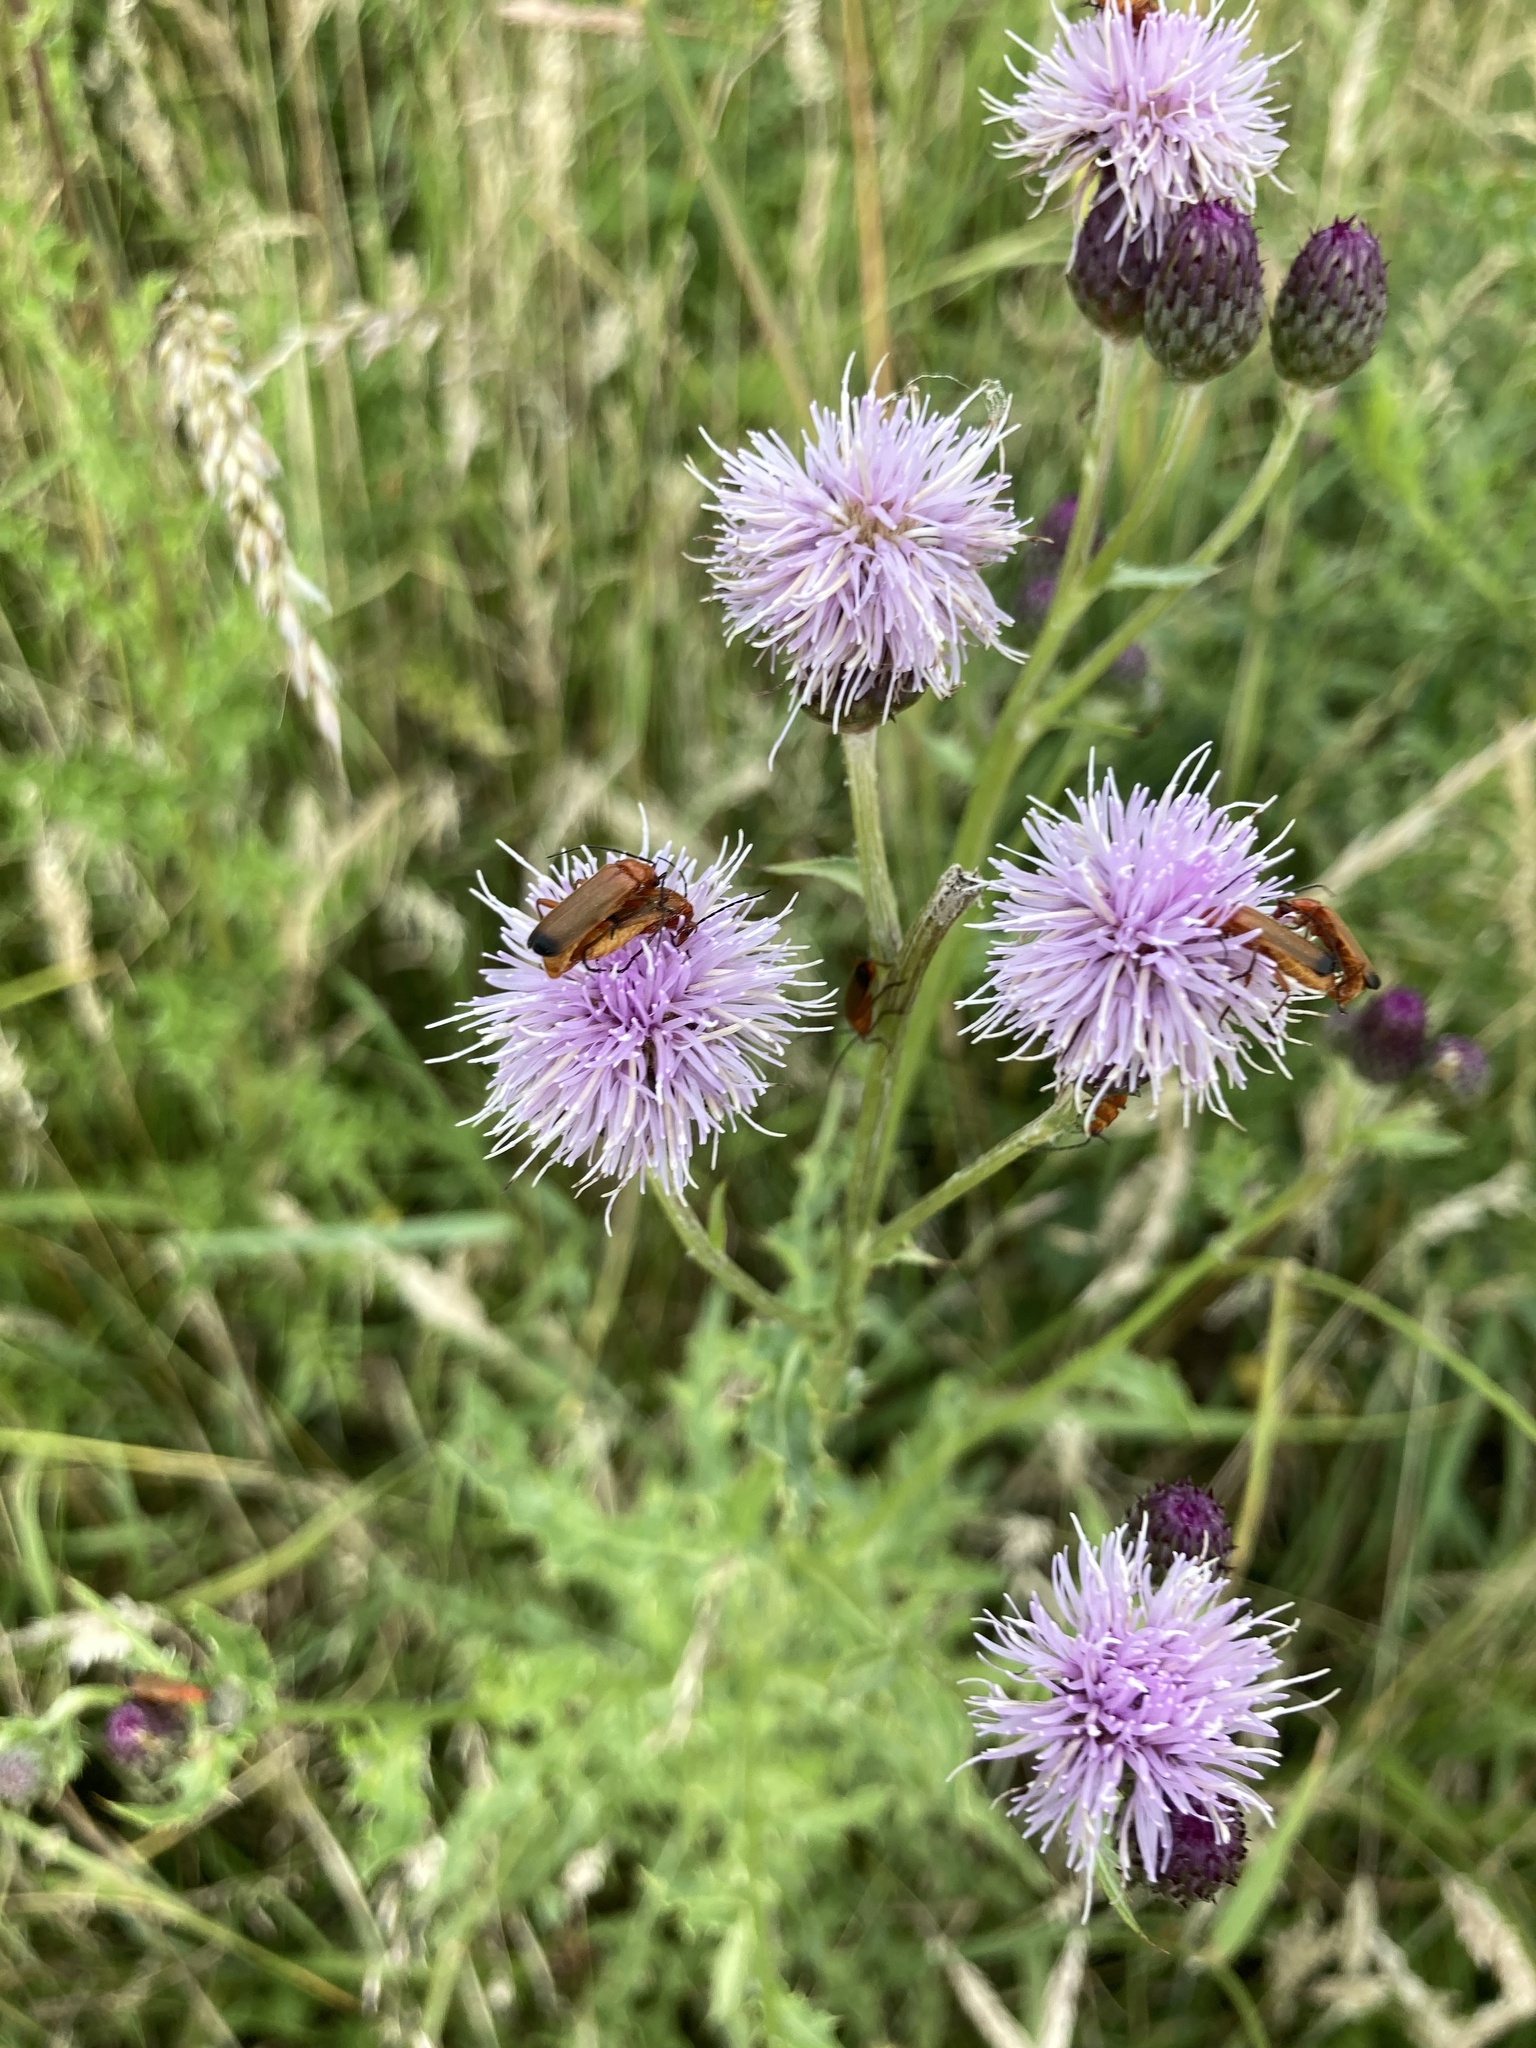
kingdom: Animalia
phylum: Arthropoda
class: Insecta
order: Coleoptera
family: Cantharidae
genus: Rhagonycha
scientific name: Rhagonycha fulva
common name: Common red soldier beetle
